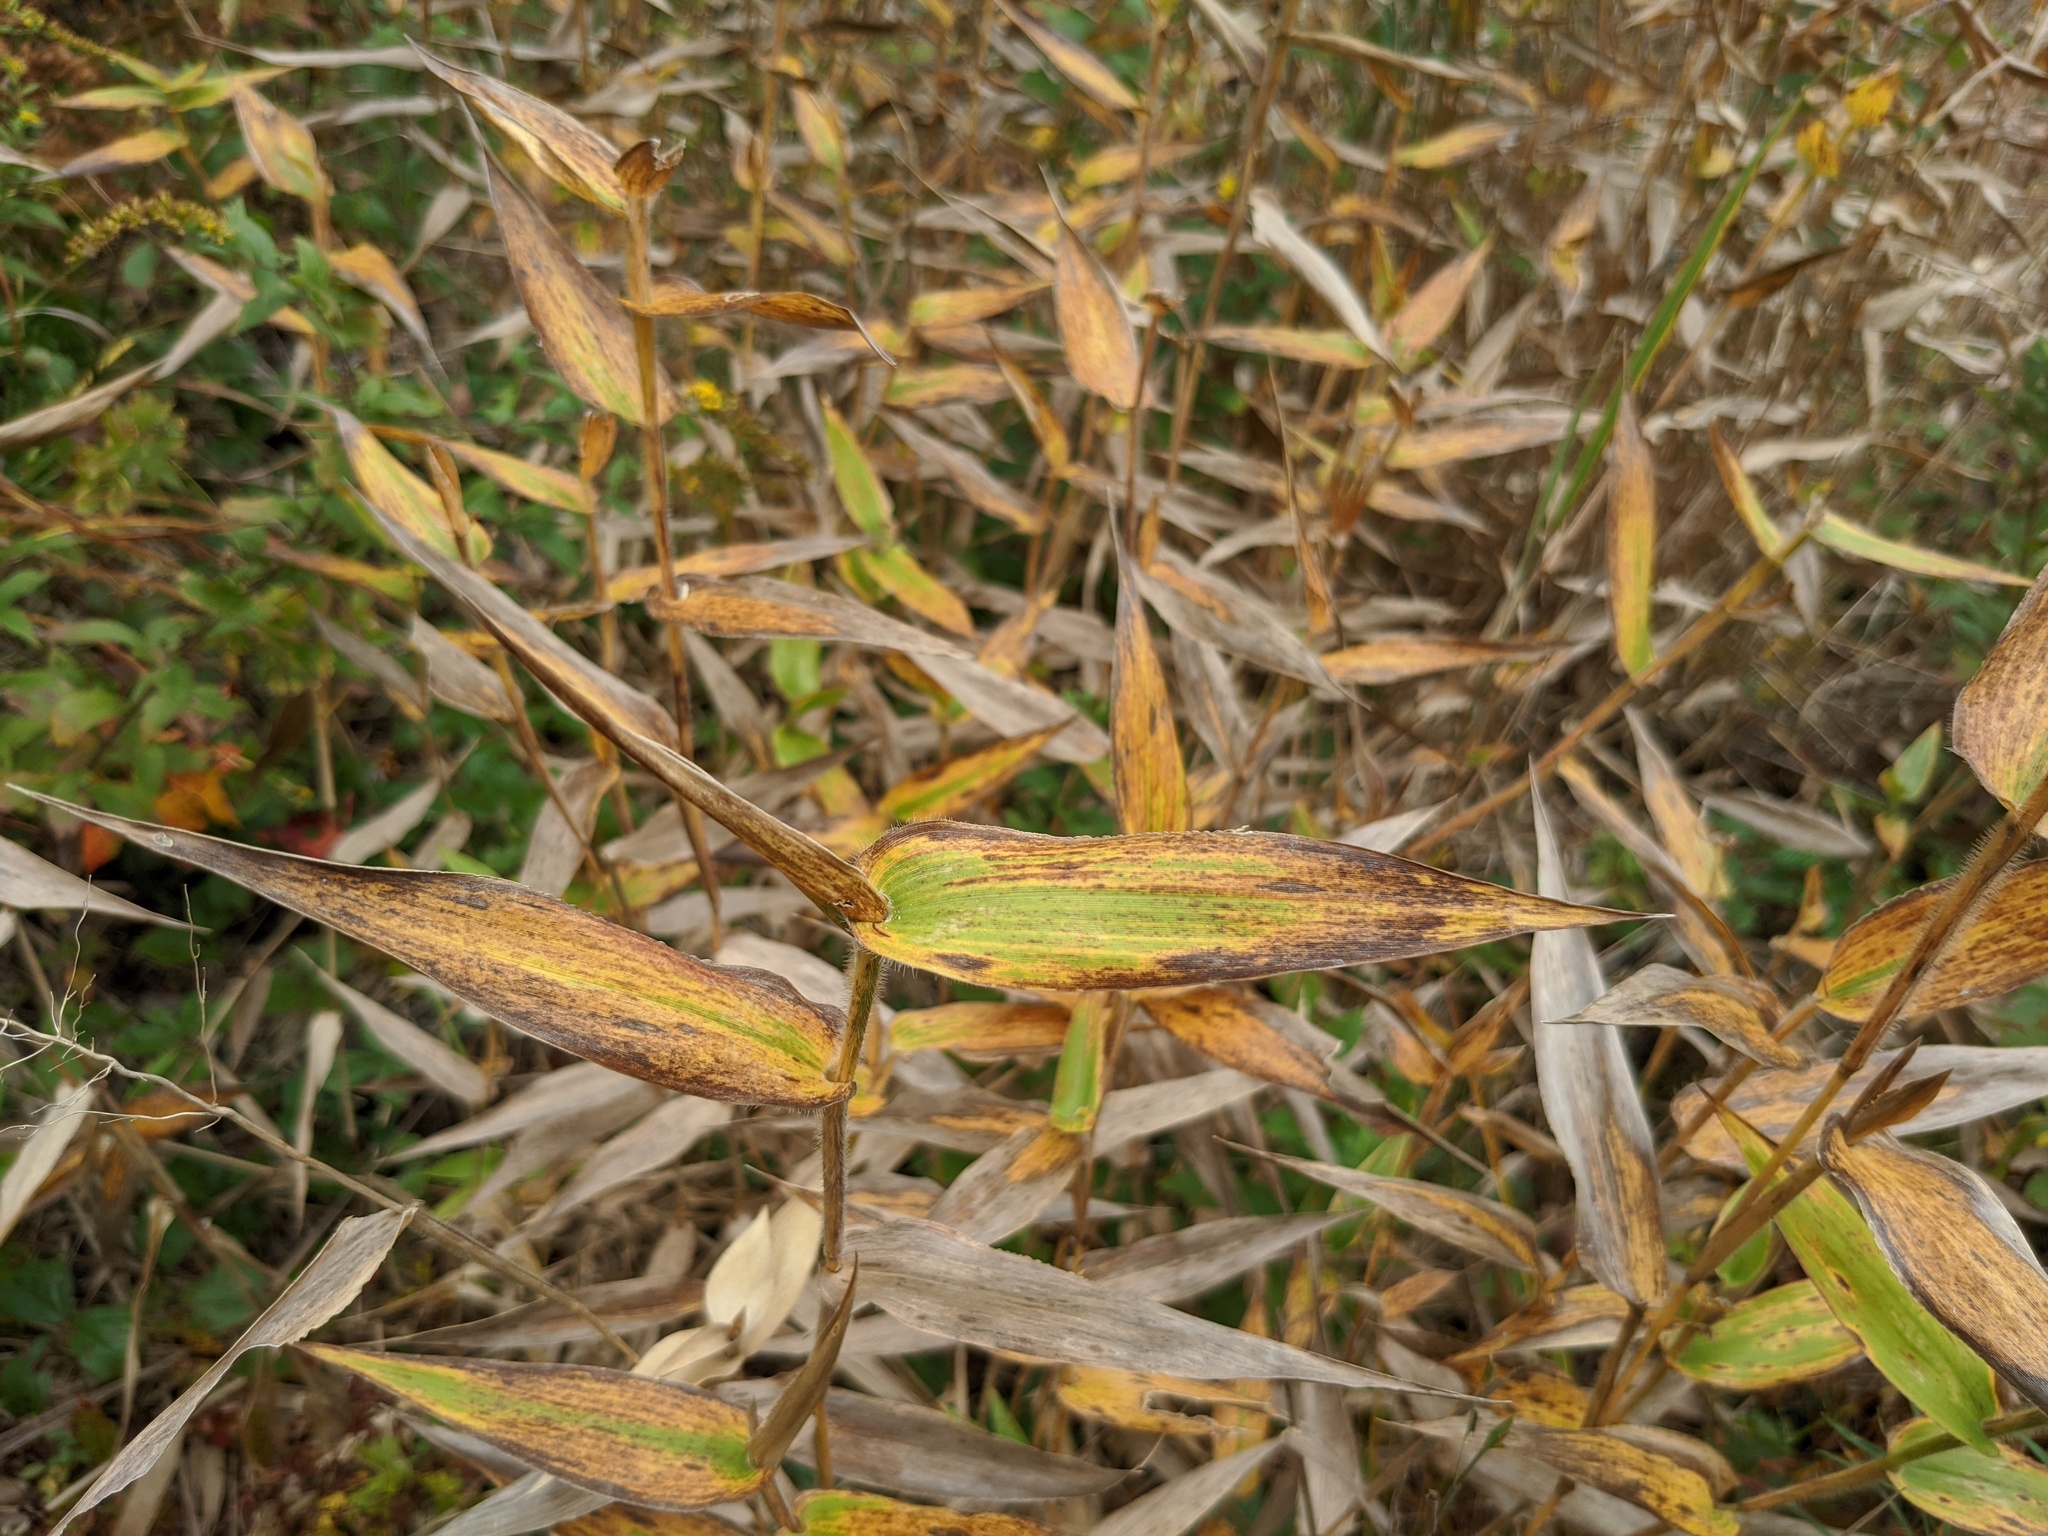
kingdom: Plantae
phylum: Tracheophyta
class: Liliopsida
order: Poales
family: Poaceae
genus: Dichanthelium
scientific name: Dichanthelium clandestinum
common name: Deer-tongue grass
